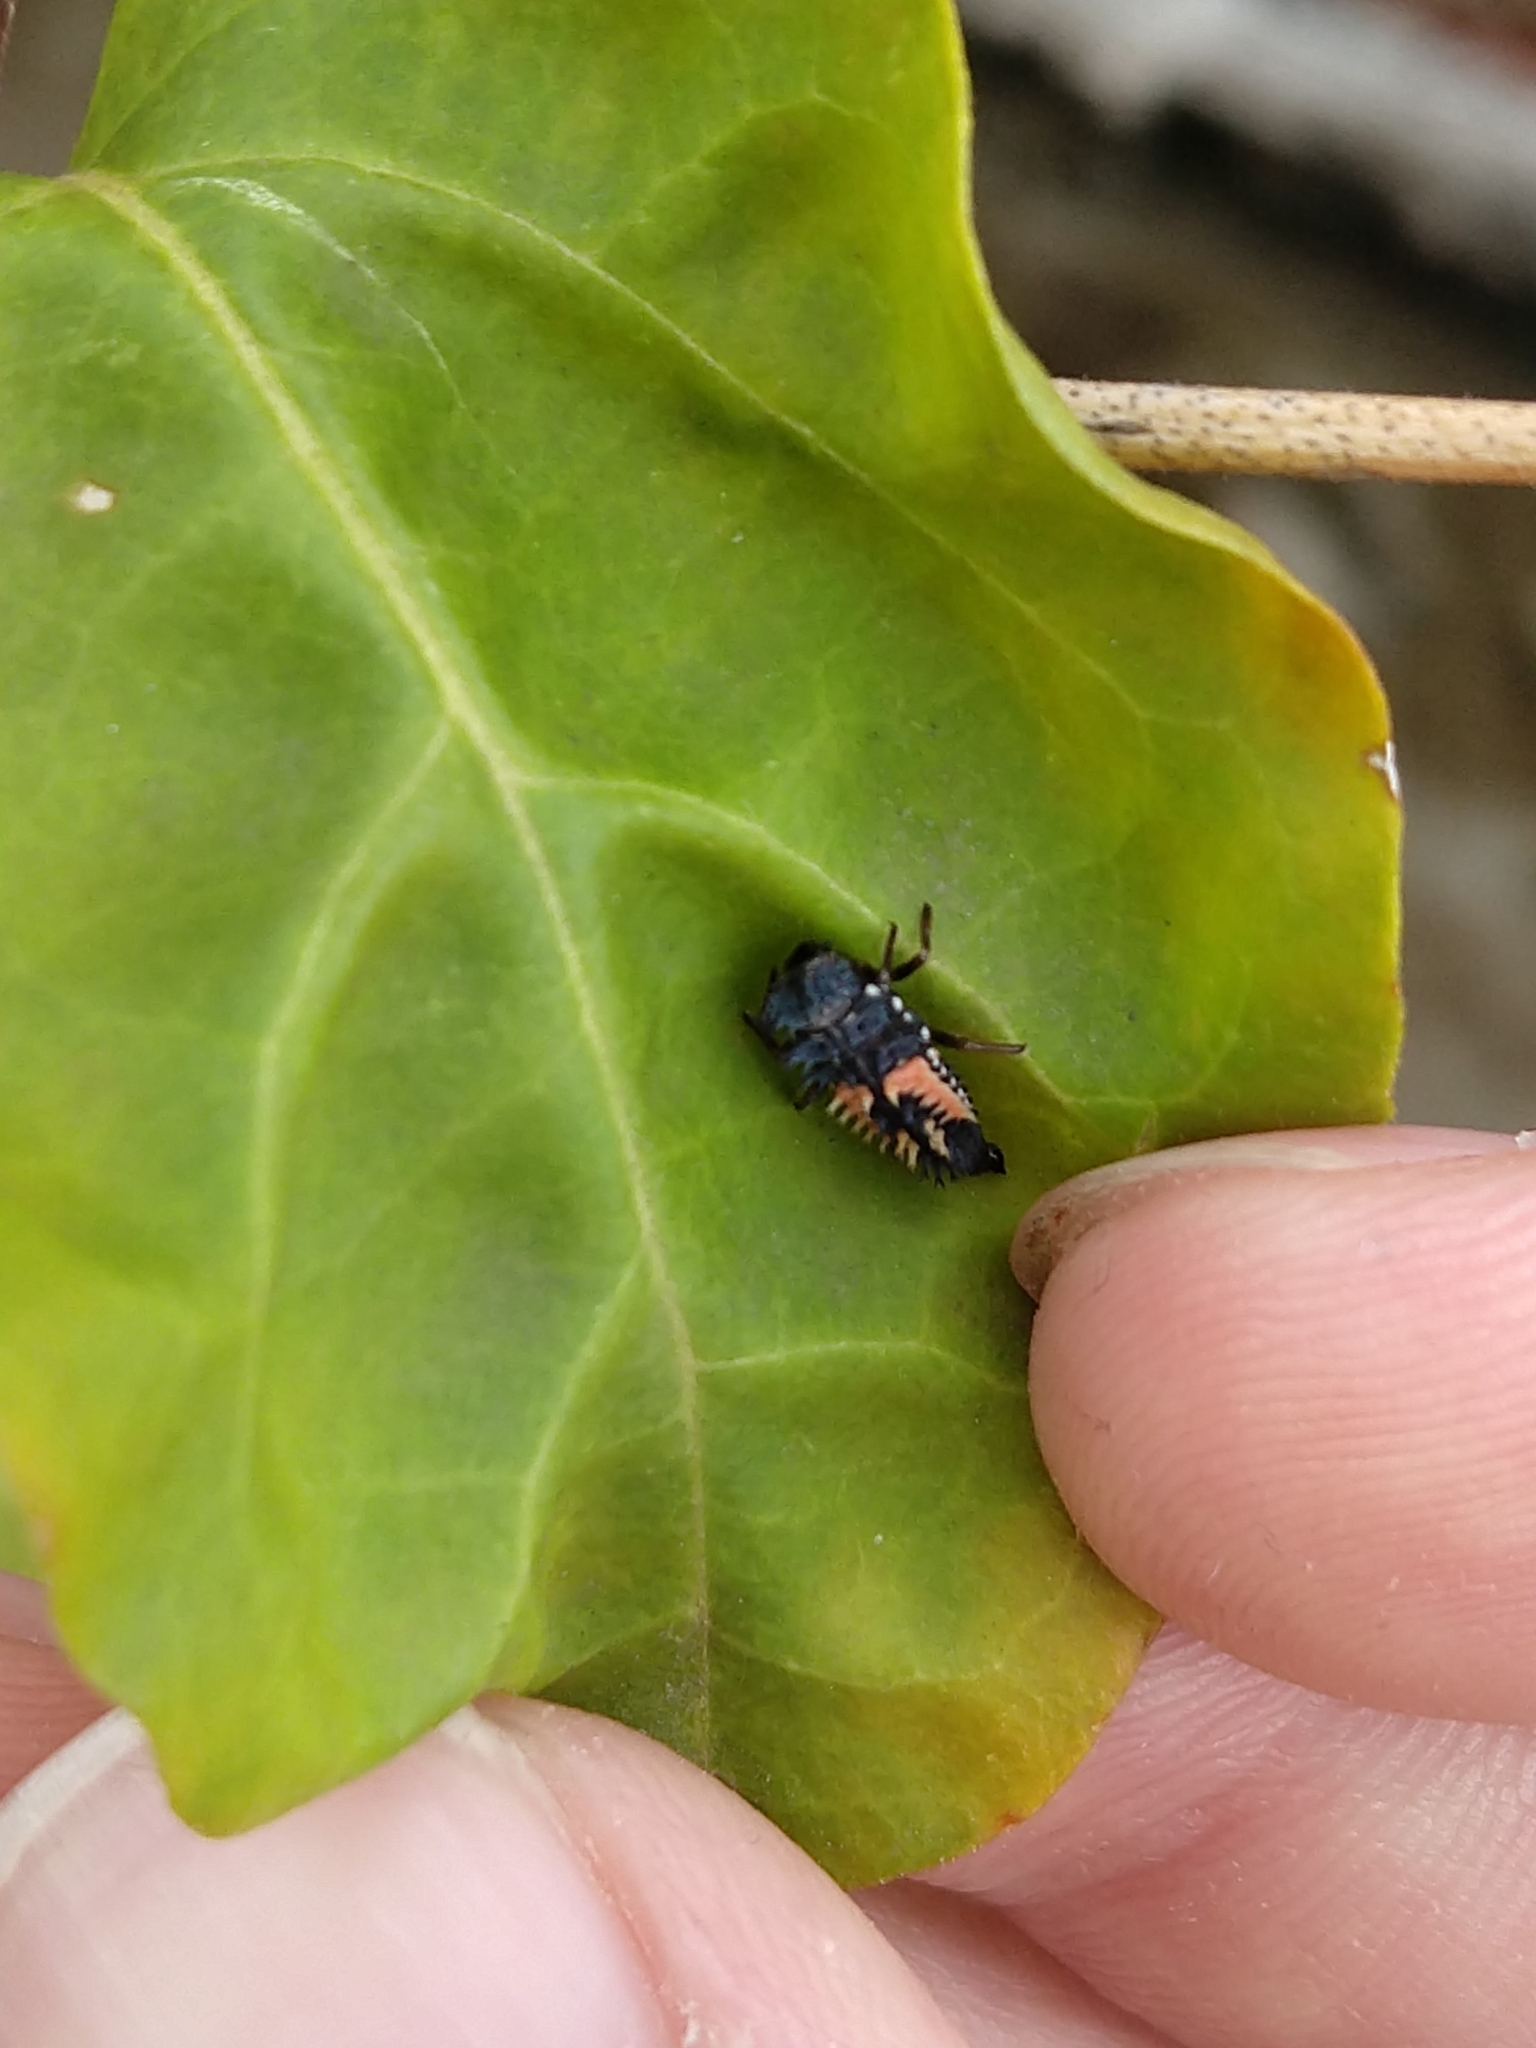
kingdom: Animalia
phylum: Arthropoda
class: Insecta
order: Coleoptera
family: Coccinellidae
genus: Harmonia
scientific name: Harmonia axyridis
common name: Harlequin ladybird
